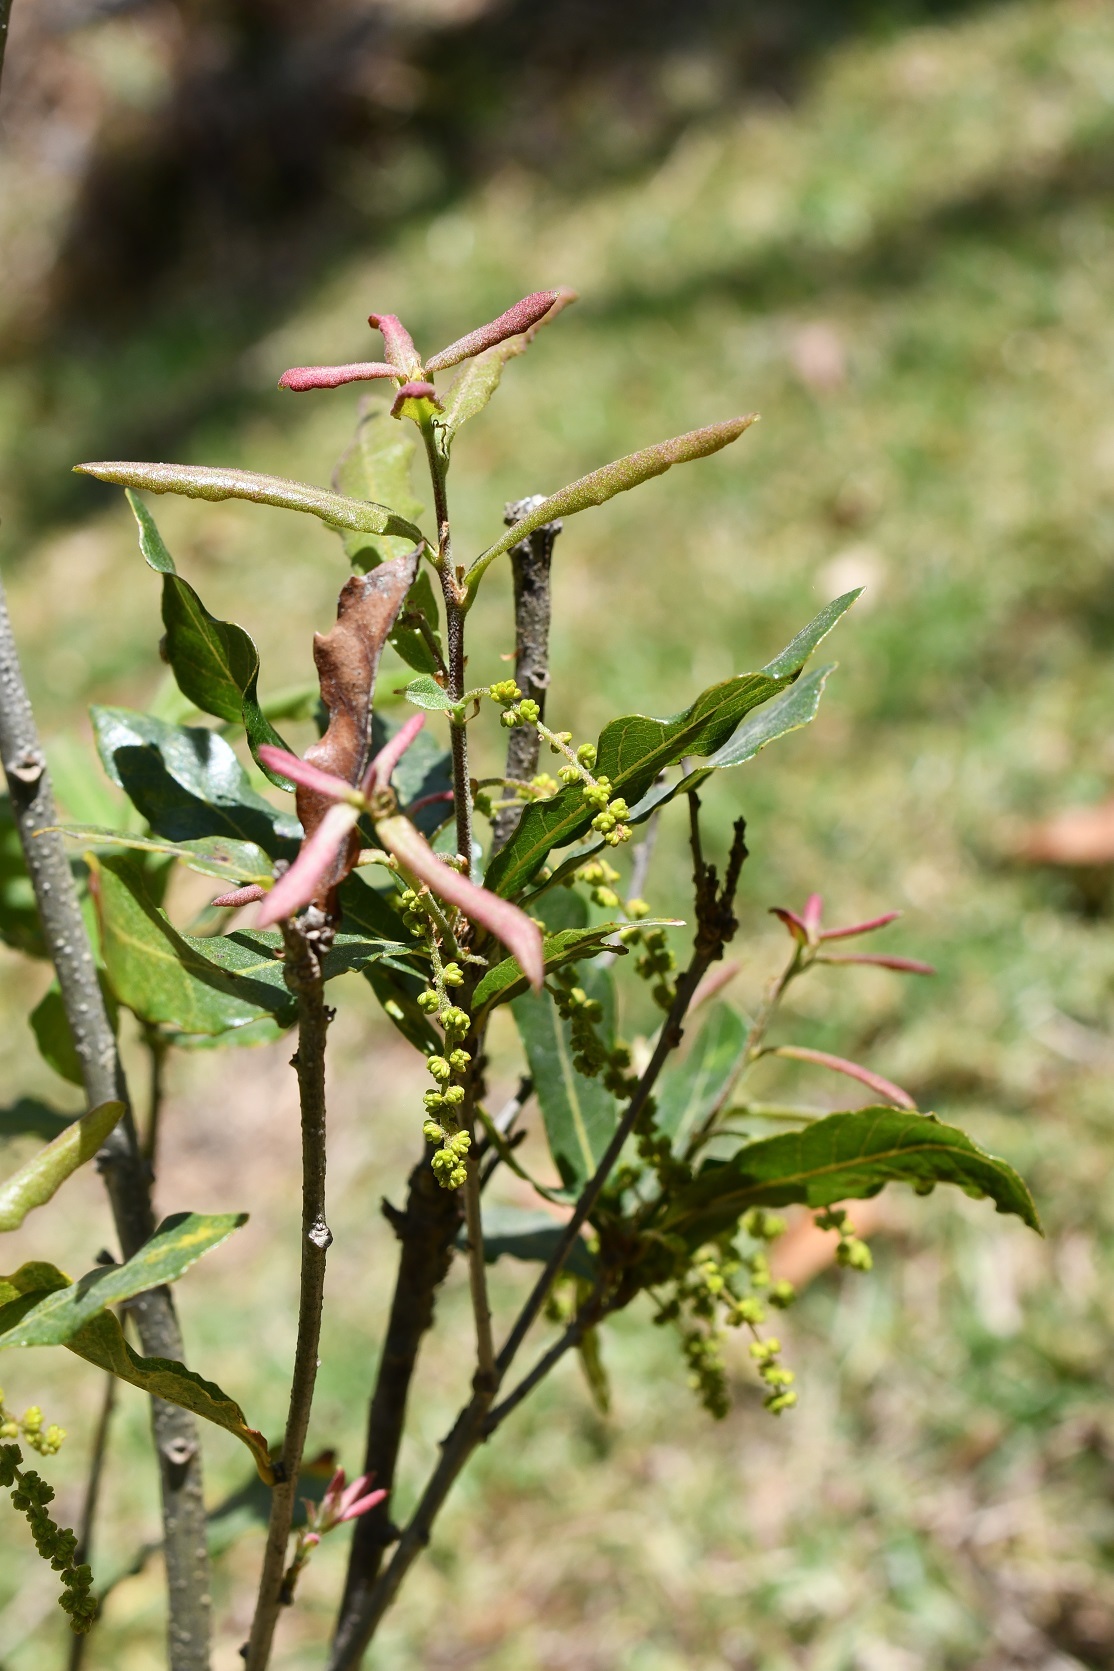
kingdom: Plantae
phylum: Tracheophyta
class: Magnoliopsida
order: Fagales
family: Fagaceae
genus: Quercus
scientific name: Quercus sebifera
